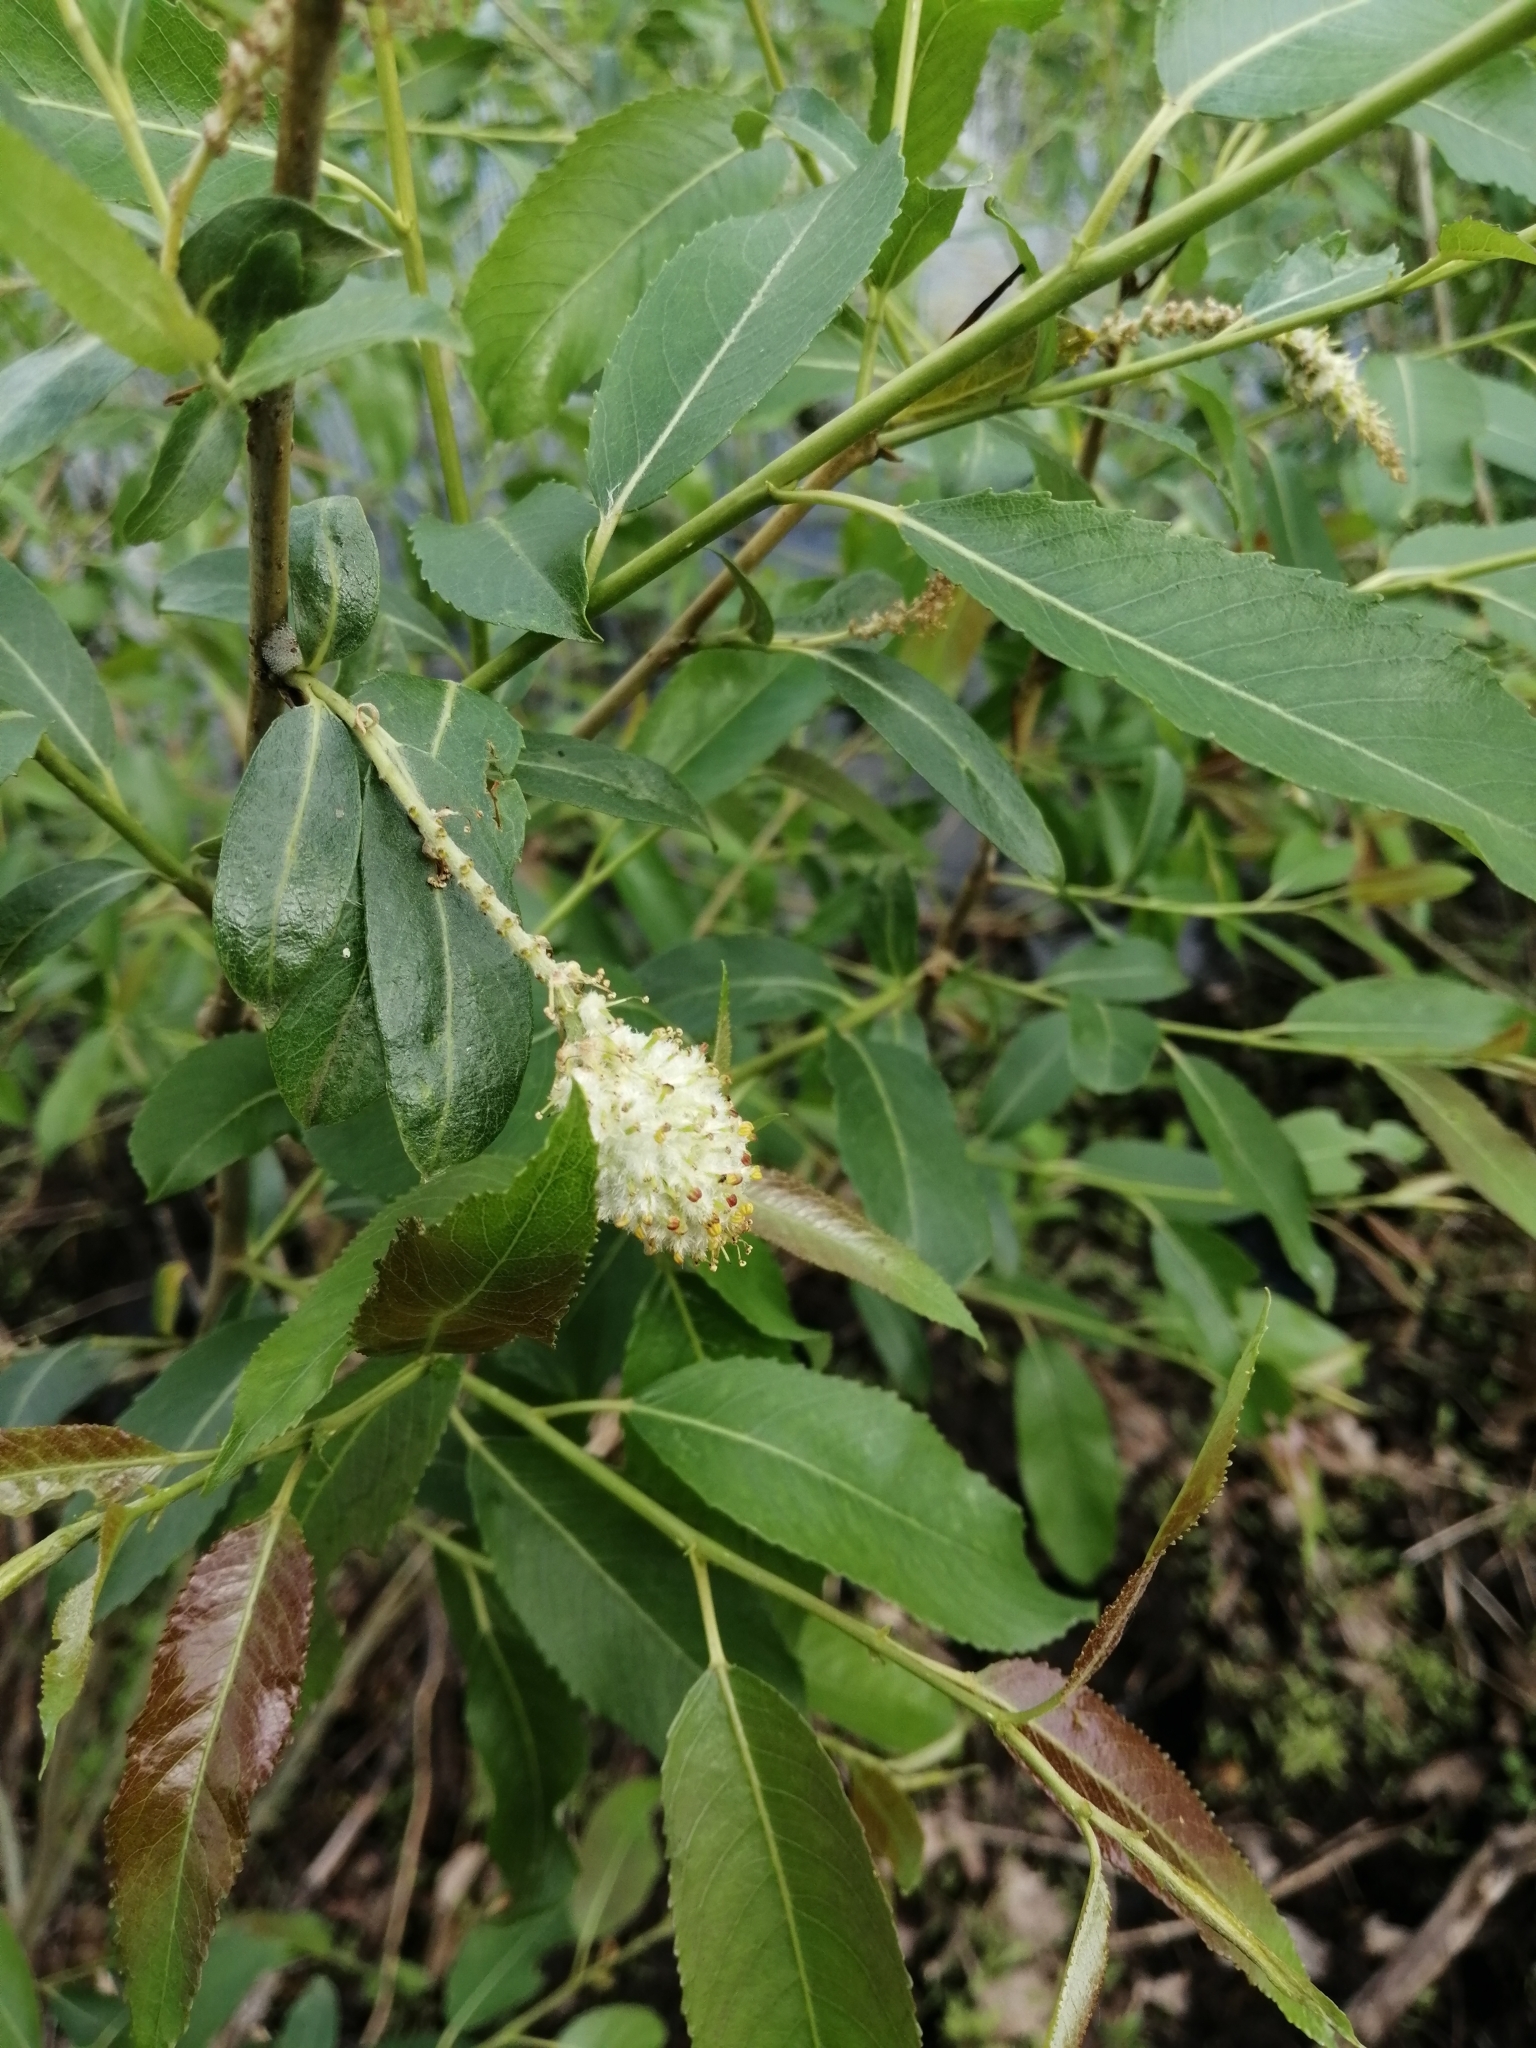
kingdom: Plantae
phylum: Tracheophyta
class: Magnoliopsida
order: Malpighiales
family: Salicaceae
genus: Salix
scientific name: Salix triandra
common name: Almond willow
